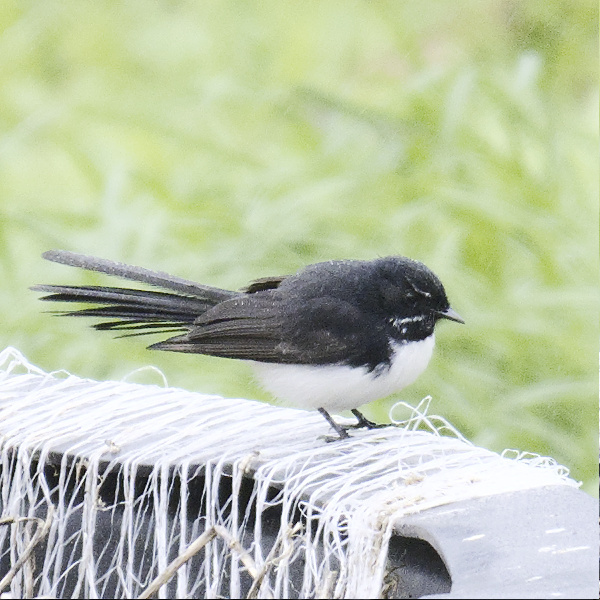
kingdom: Animalia
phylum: Chordata
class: Aves
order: Passeriformes
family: Rhipiduridae
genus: Rhipidura
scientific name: Rhipidura leucophrys
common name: Willie wagtail
